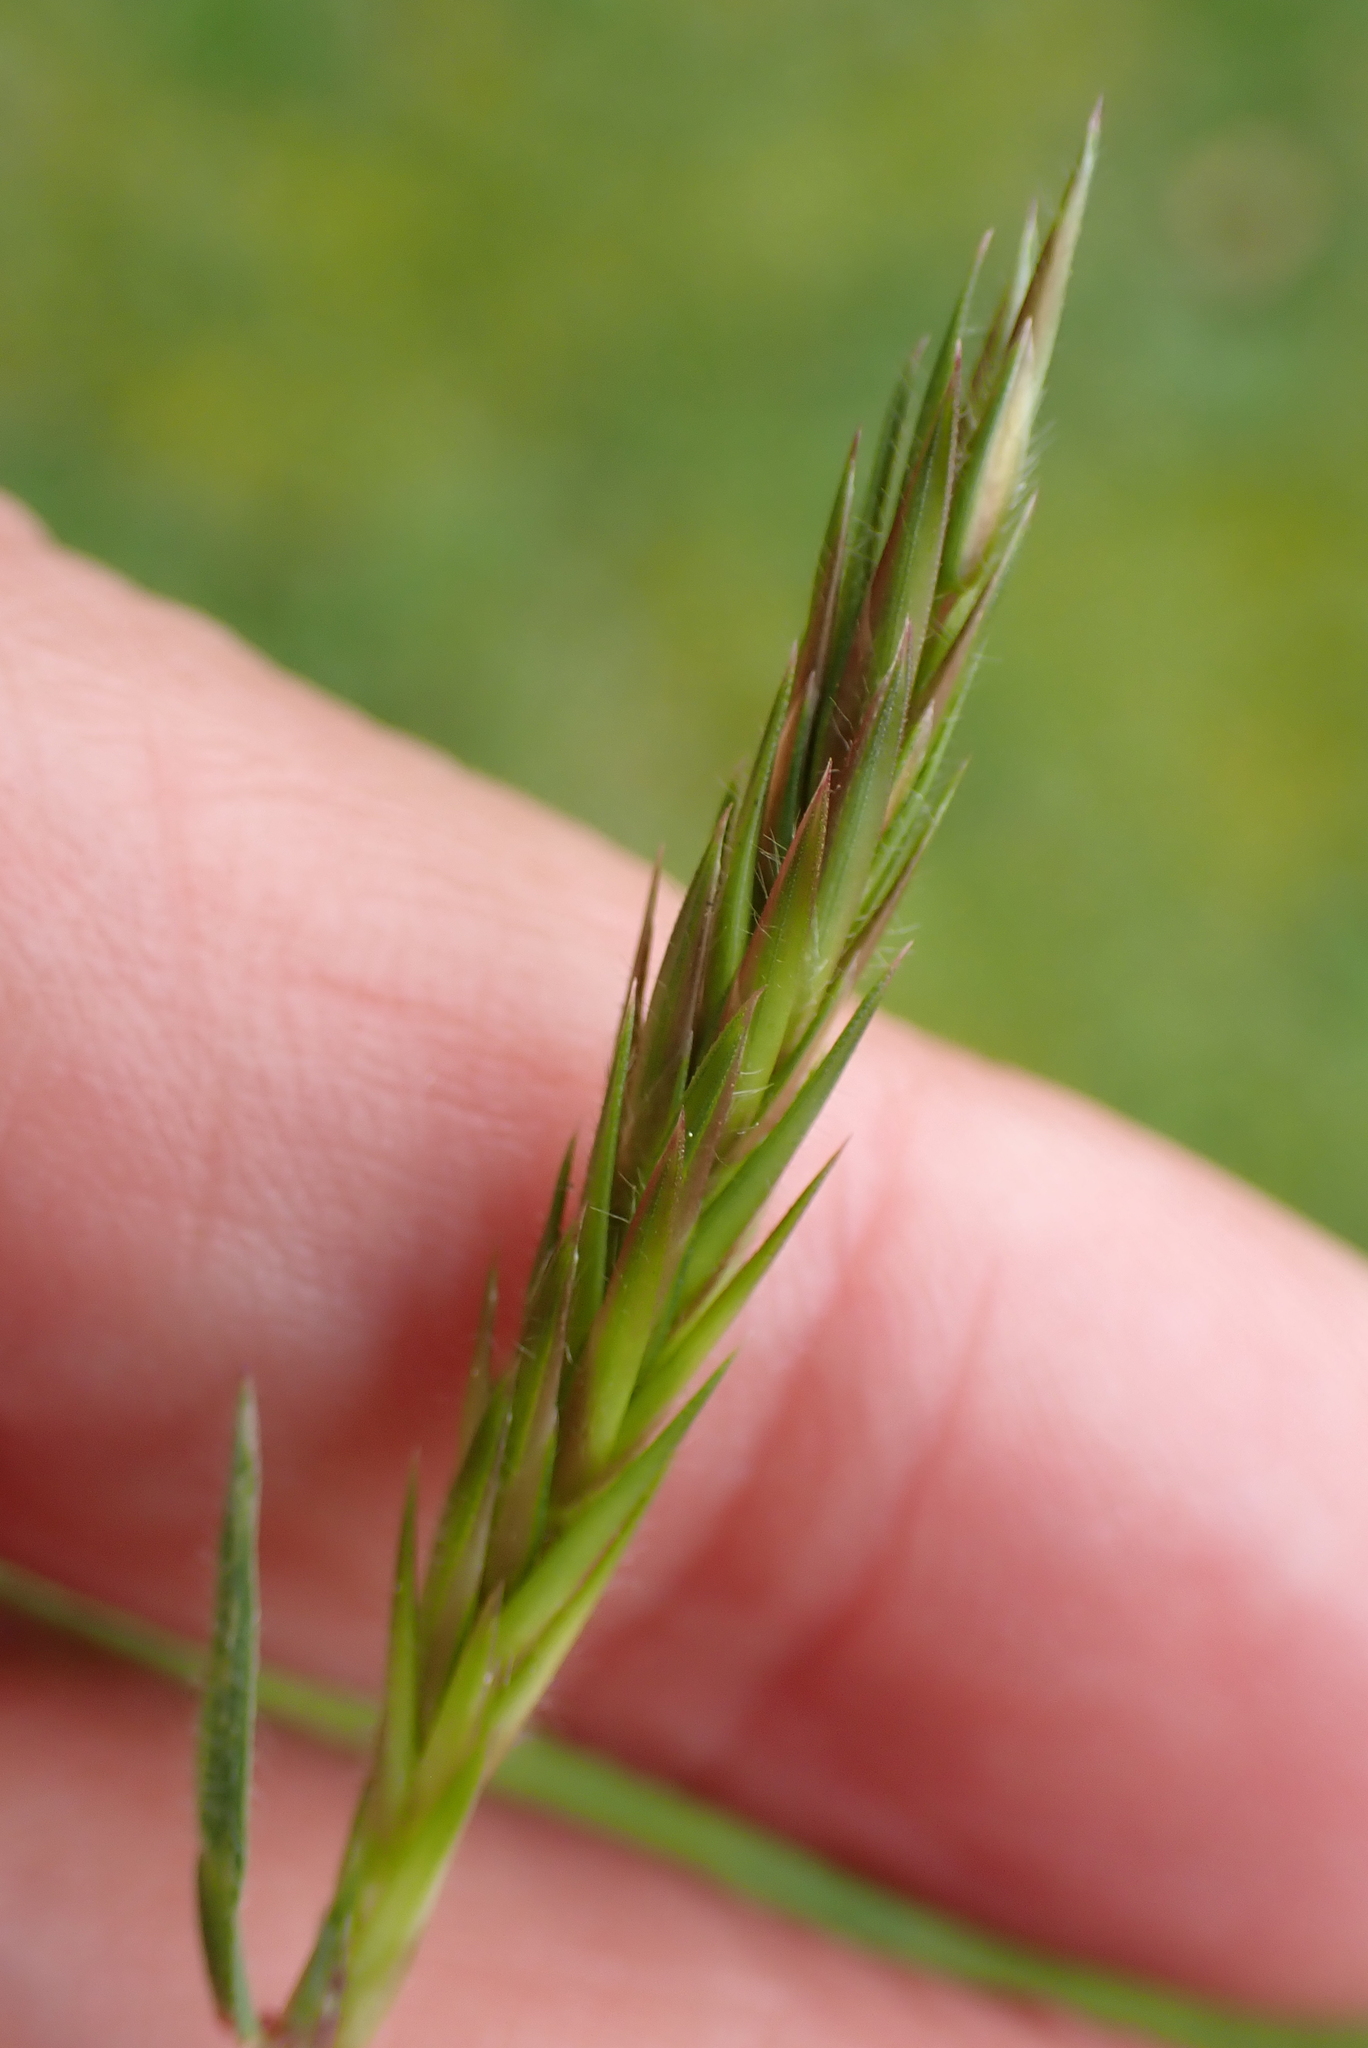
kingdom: Plantae
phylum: Tracheophyta
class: Liliopsida
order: Poales
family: Poaceae
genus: Anthoxanthum
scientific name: Anthoxanthum odoratum
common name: Sweet vernalgrass
